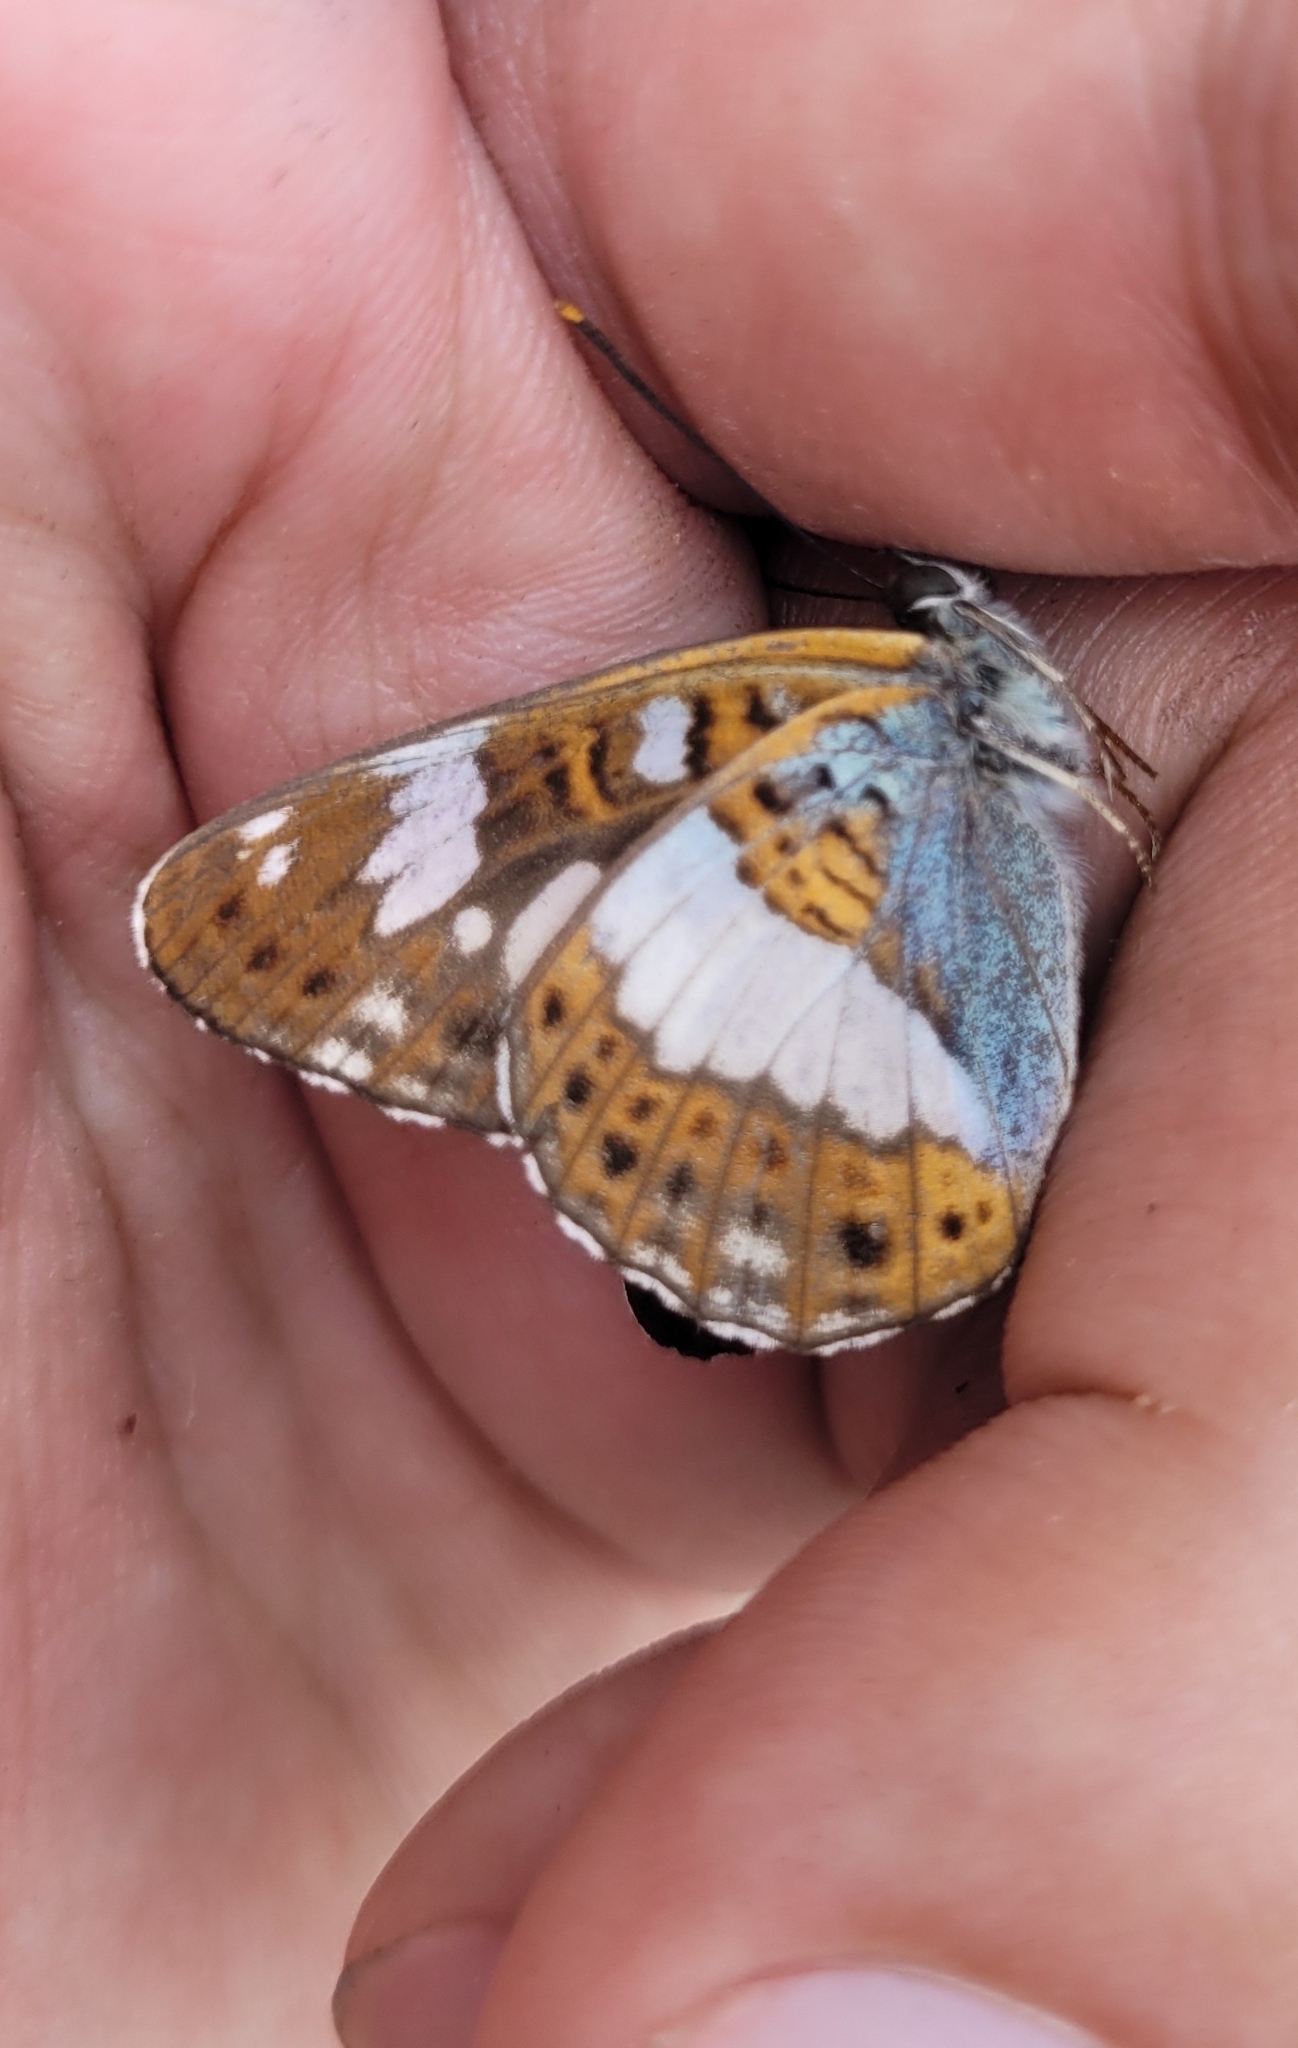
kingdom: Animalia
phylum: Arthropoda
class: Insecta
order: Lepidoptera
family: Nymphalidae
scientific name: Nymphalidae
